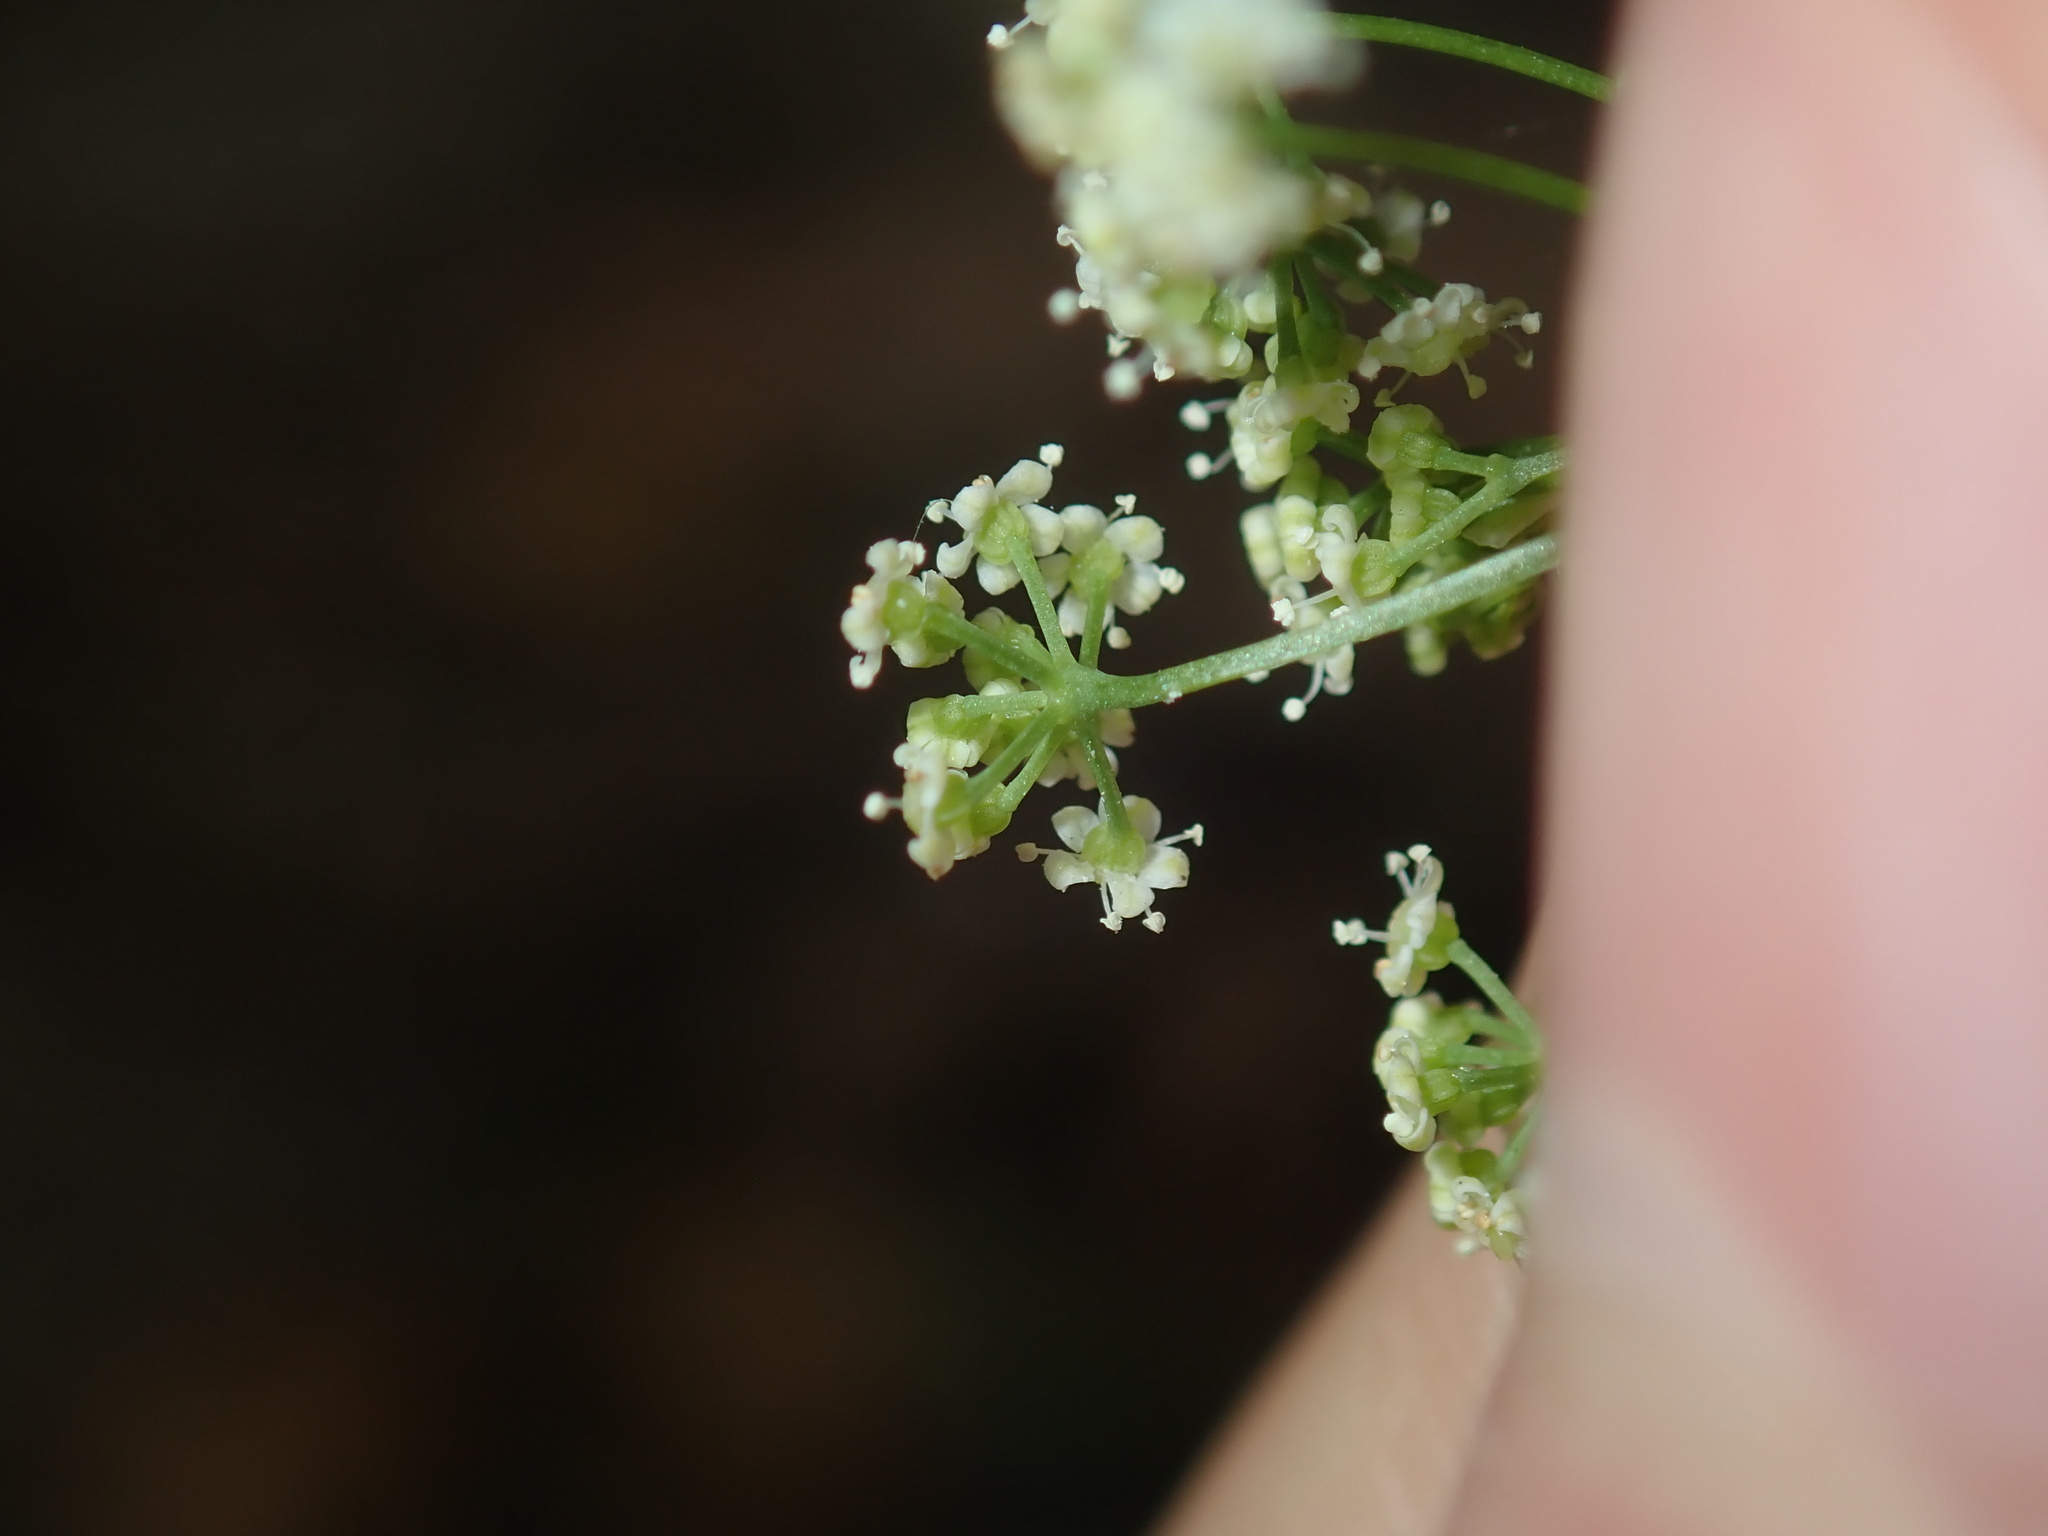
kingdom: Plantae
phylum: Tracheophyta
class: Magnoliopsida
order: Apiales
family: Apiaceae
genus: Apium
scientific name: Apium graveolens
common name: Wild celery
